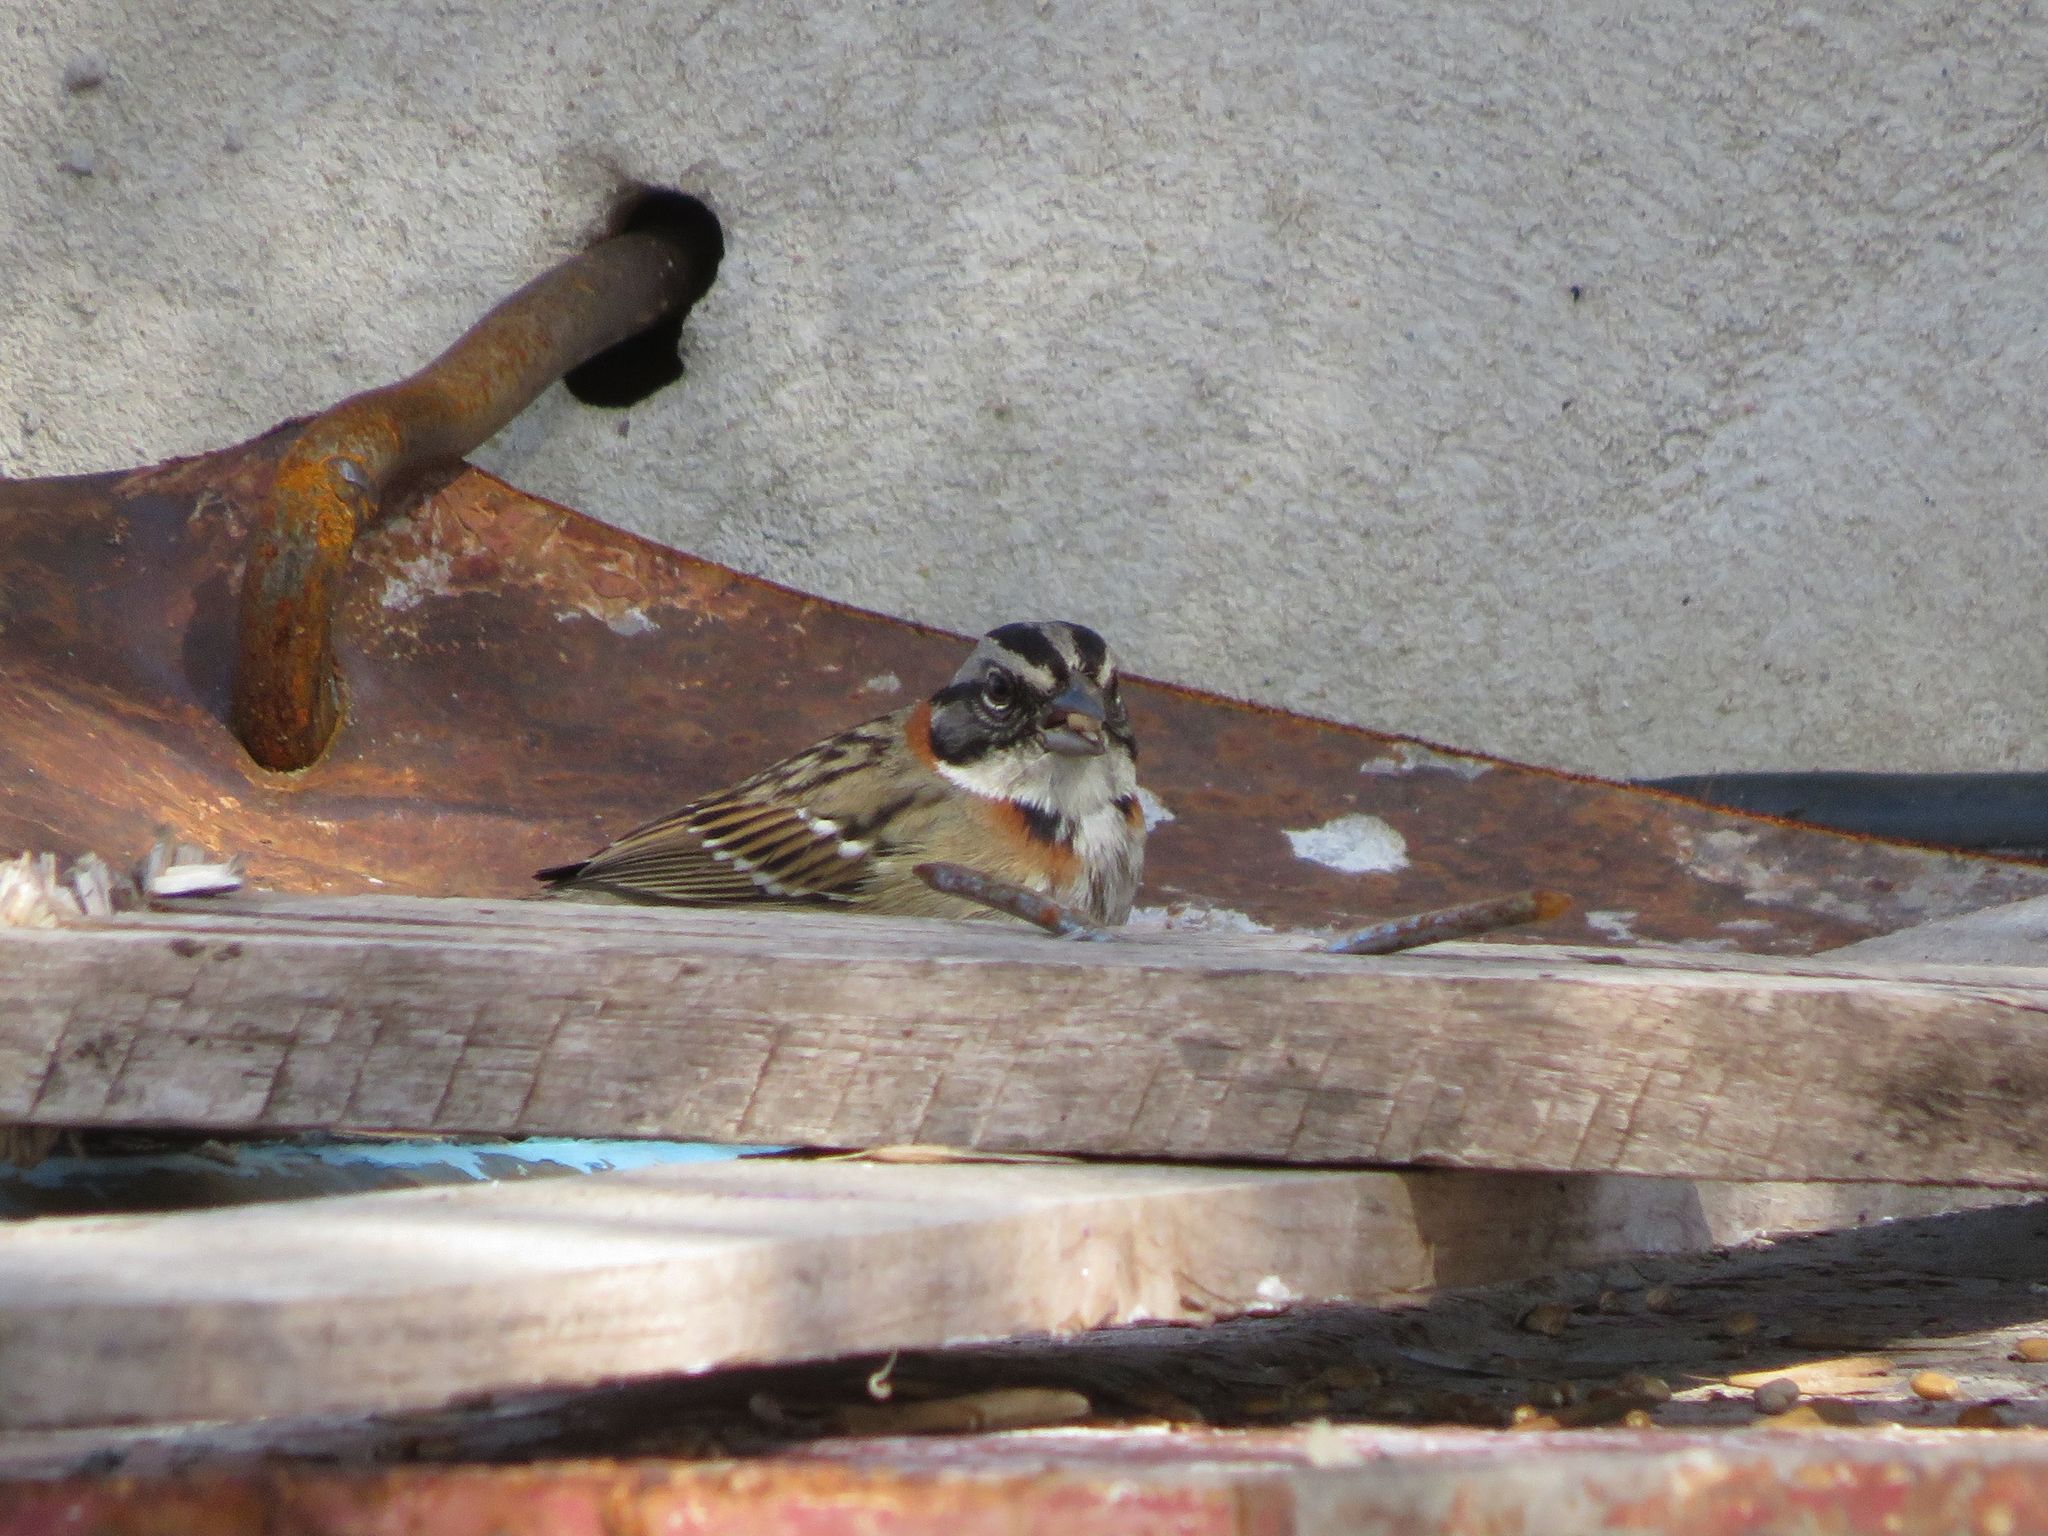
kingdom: Animalia
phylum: Chordata
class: Aves
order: Passeriformes
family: Passerellidae
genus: Zonotrichia
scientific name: Zonotrichia capensis
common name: Rufous-collared sparrow
